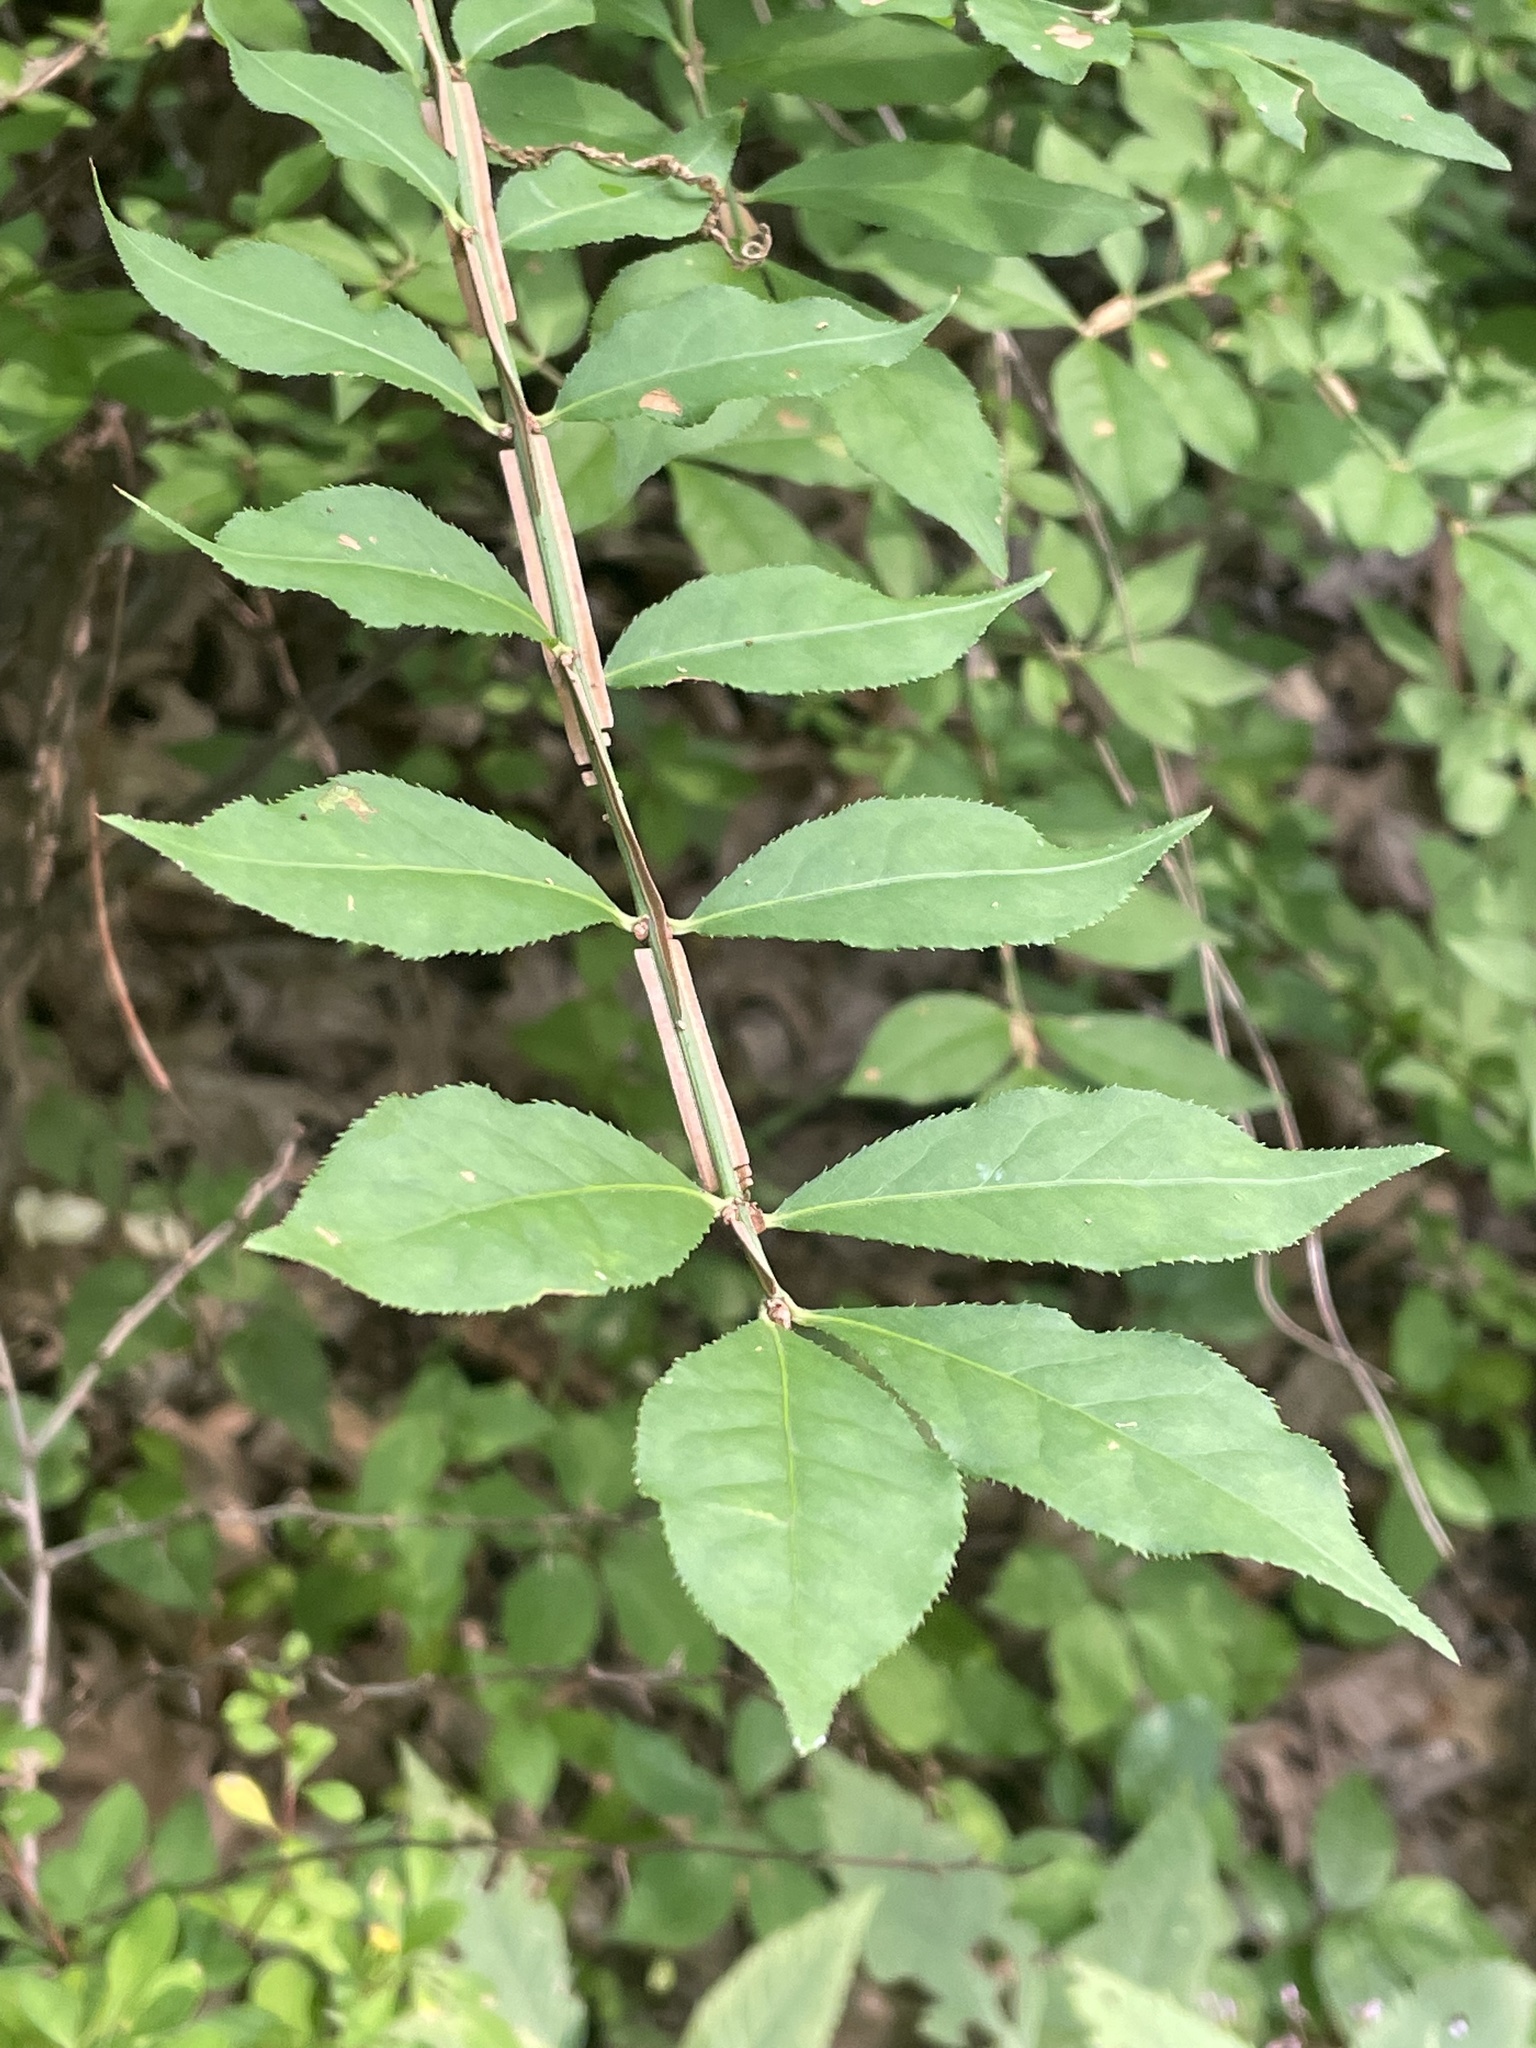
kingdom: Plantae
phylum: Tracheophyta
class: Magnoliopsida
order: Celastrales
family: Celastraceae
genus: Euonymus
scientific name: Euonymus alatus
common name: Winged euonymus
